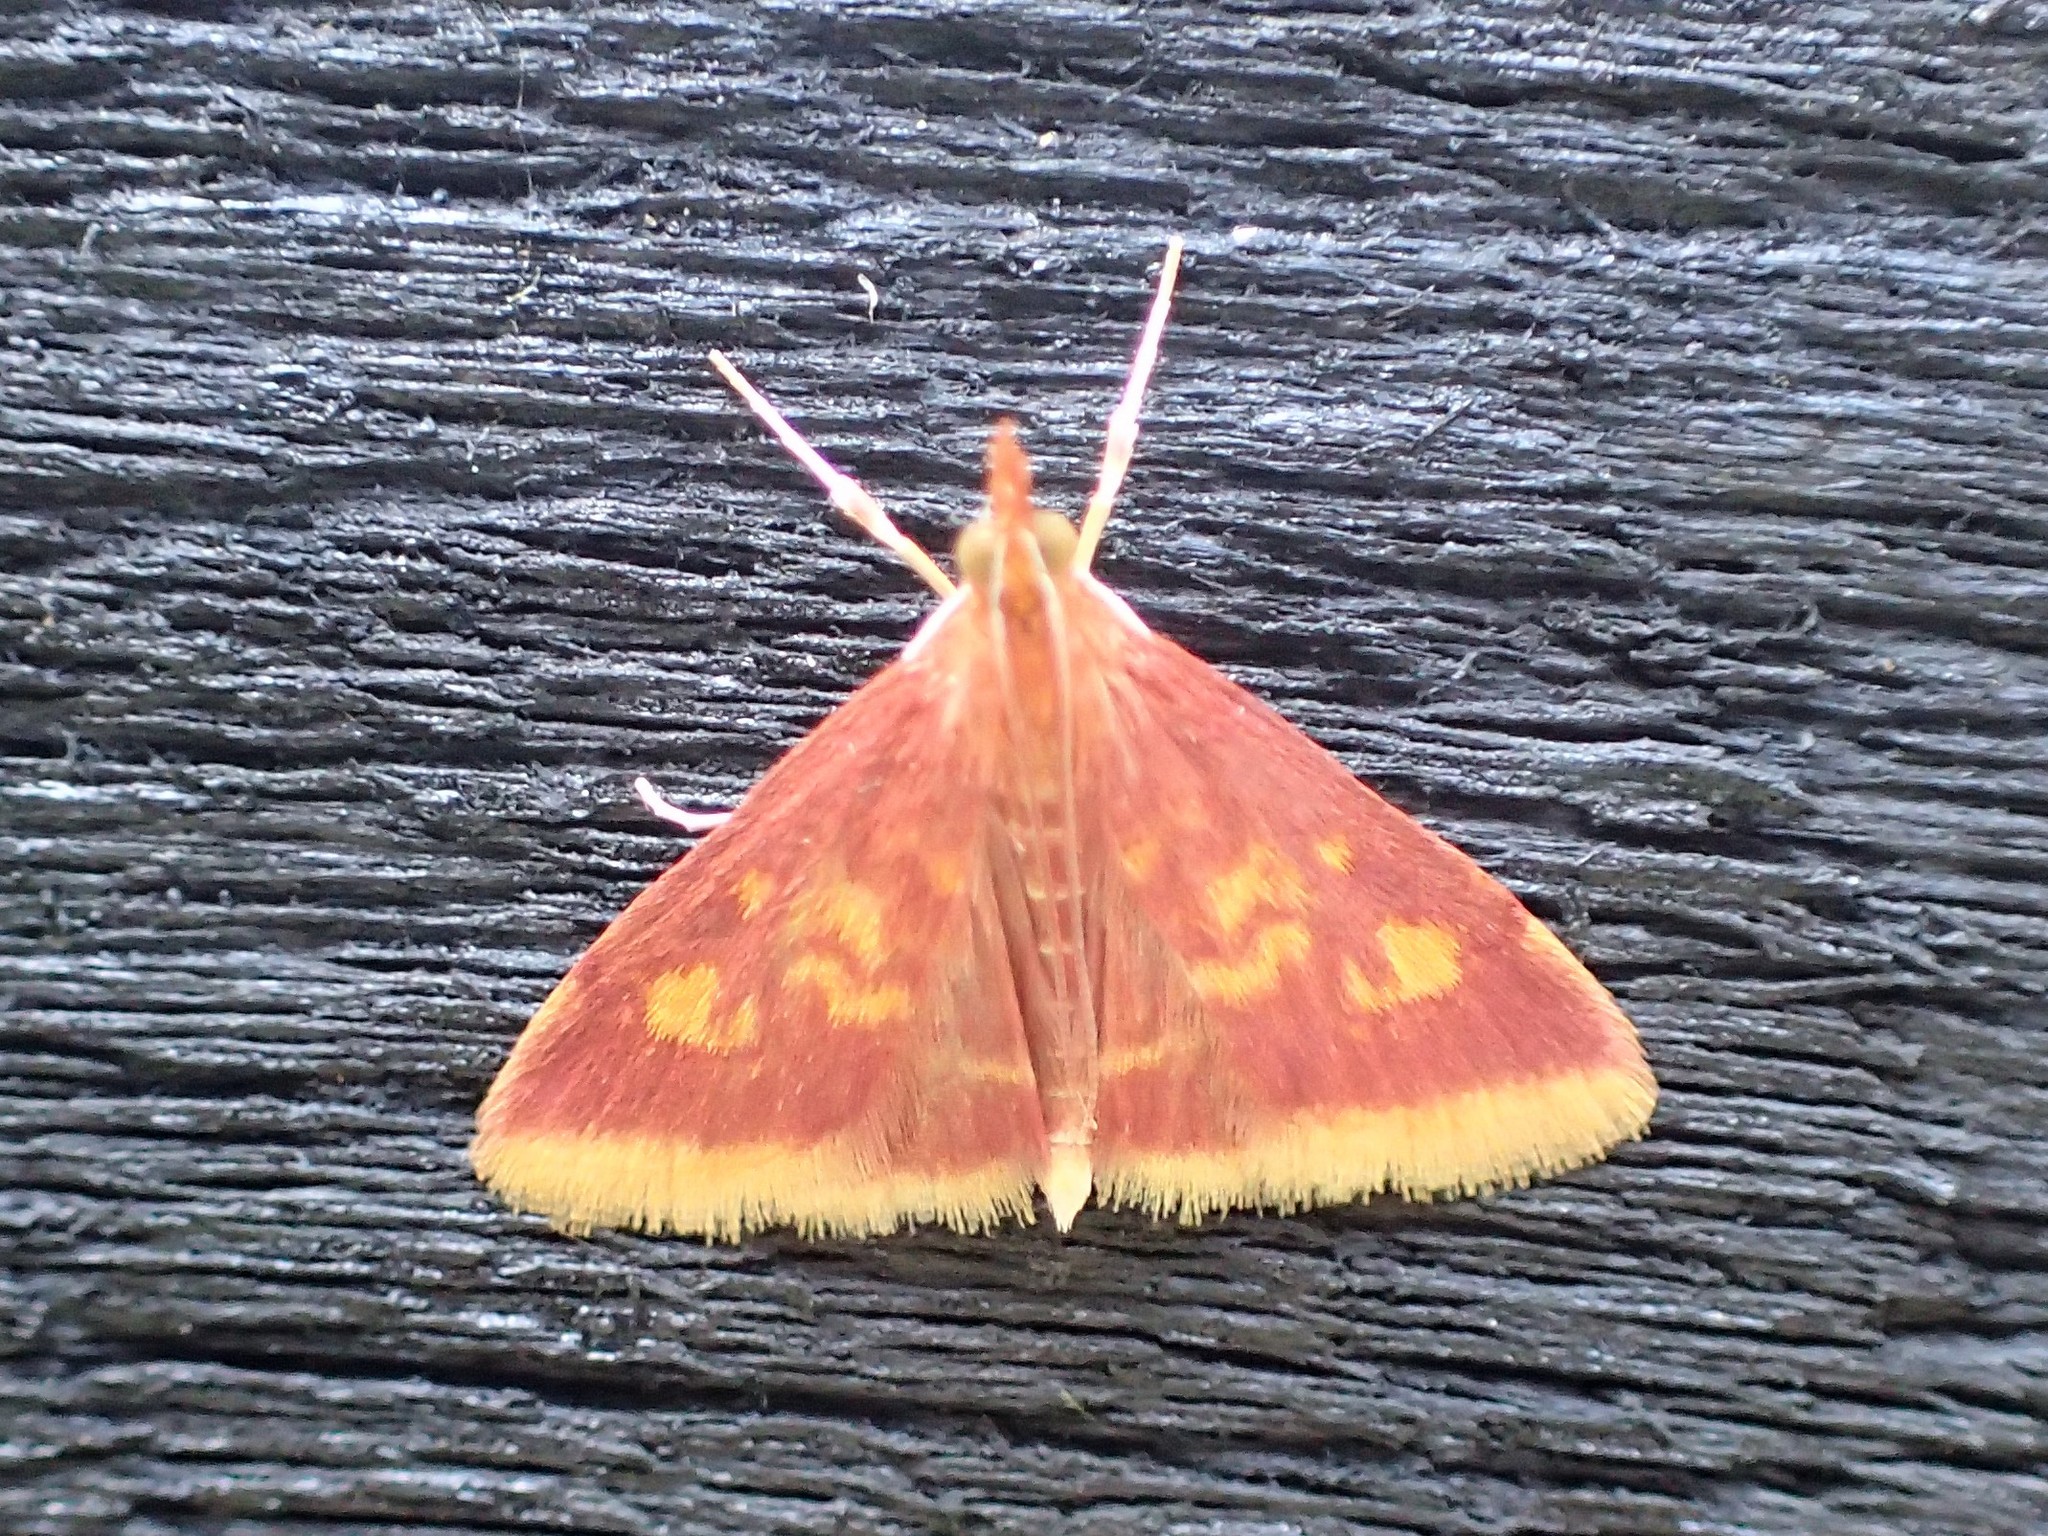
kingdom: Animalia
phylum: Arthropoda
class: Insecta
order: Lepidoptera
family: Crambidae
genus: Pyrausta
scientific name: Pyrausta acrionalis
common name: Mint-loving pyrausta moth
